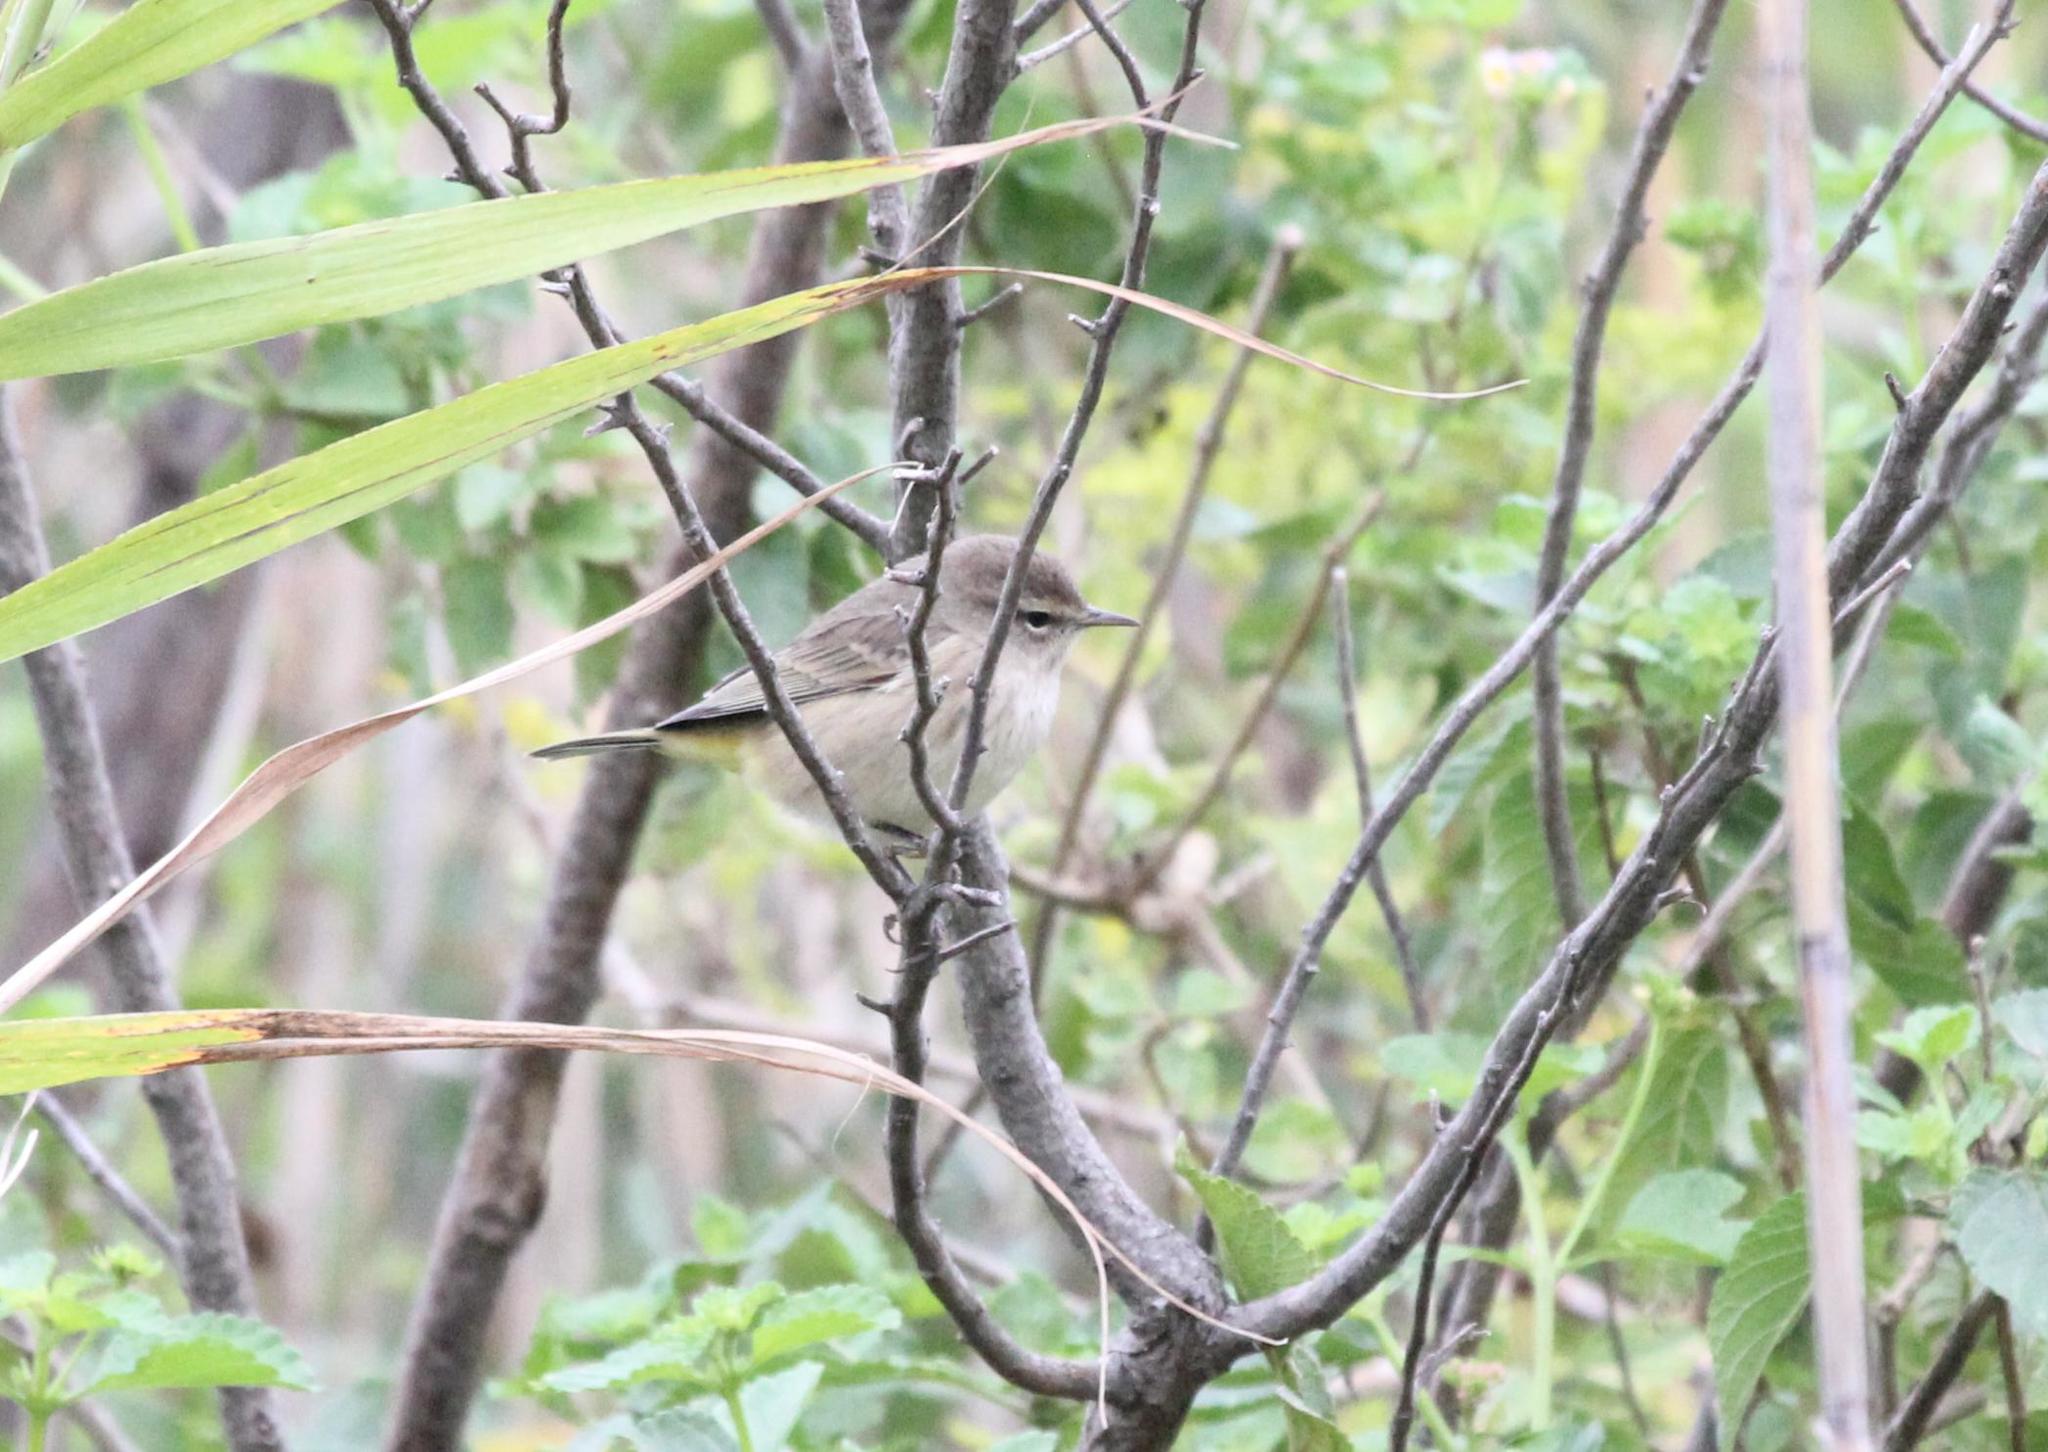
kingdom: Animalia
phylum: Chordata
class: Aves
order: Passeriformes
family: Parulidae
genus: Setophaga
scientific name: Setophaga palmarum
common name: Palm warbler
